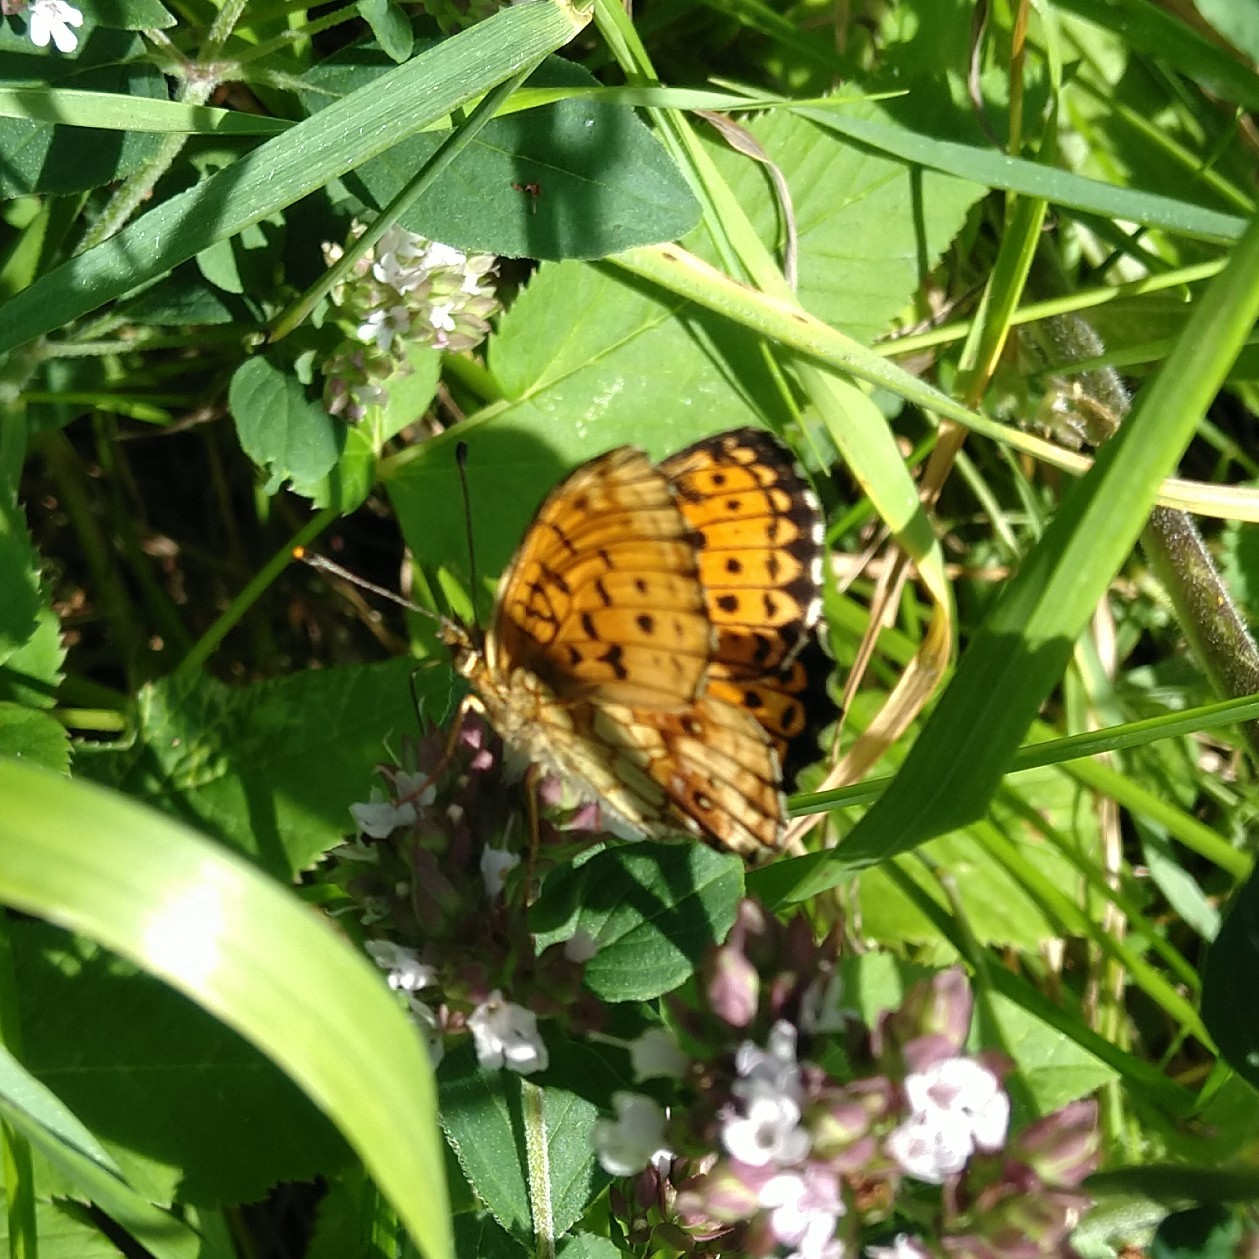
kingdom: Animalia
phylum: Arthropoda
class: Insecta
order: Lepidoptera
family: Nymphalidae
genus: Brenthis
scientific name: Brenthis ino
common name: Lesser marbled fritillary
